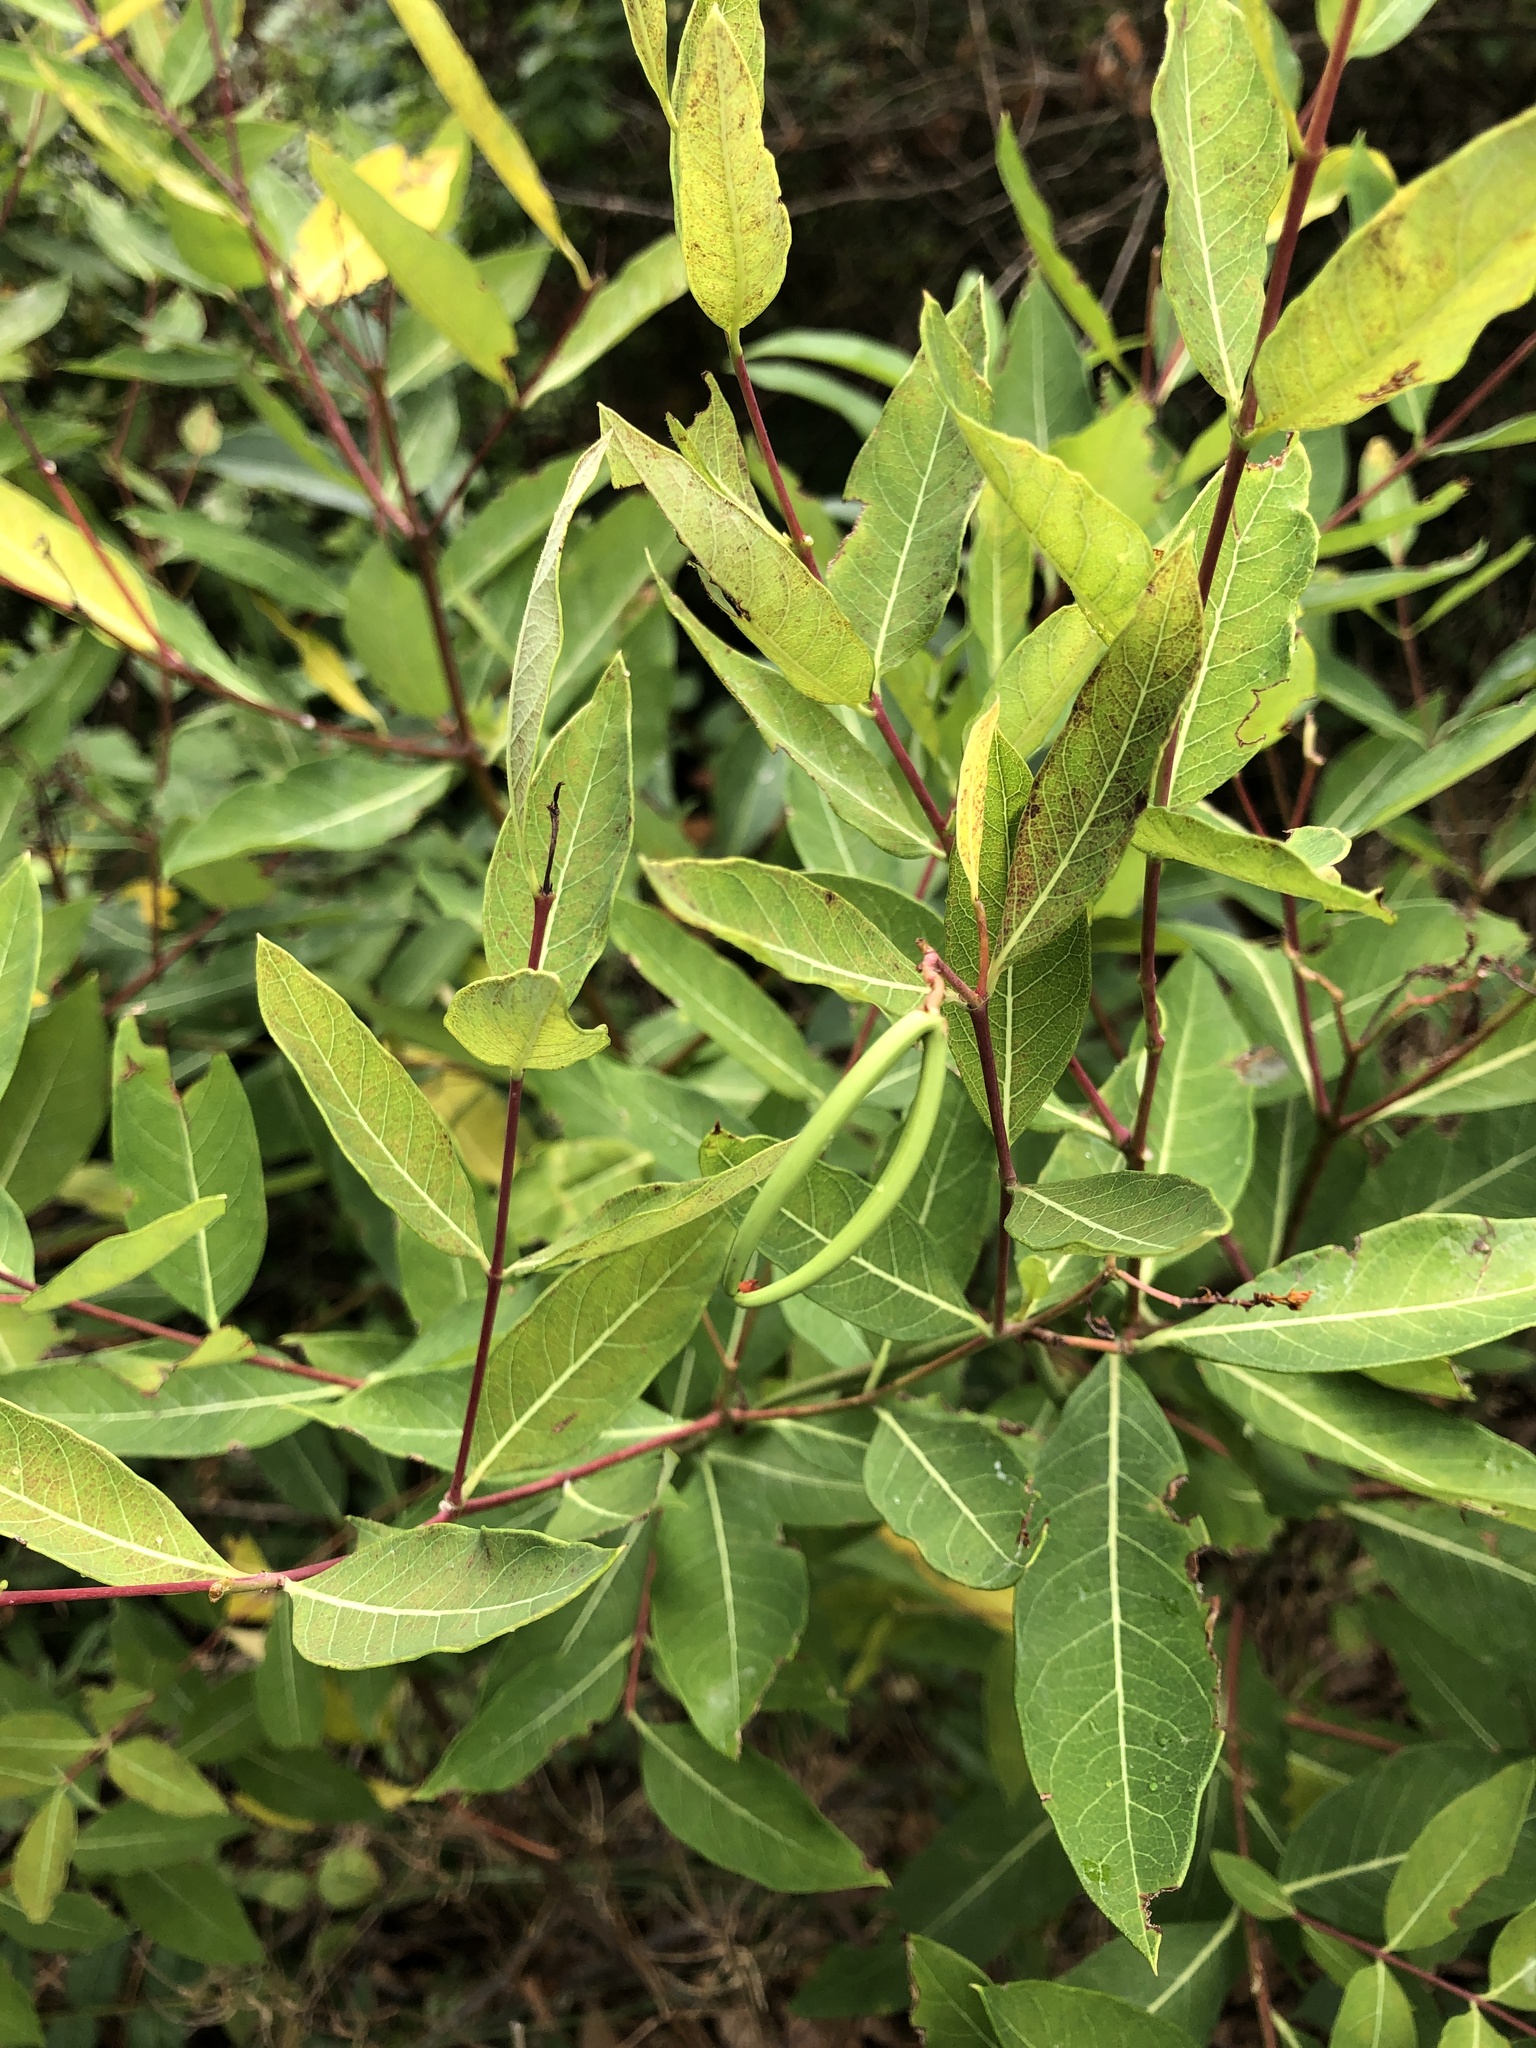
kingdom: Plantae
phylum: Tracheophyta
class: Magnoliopsida
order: Gentianales
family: Apocynaceae
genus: Apocynum
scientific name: Apocynum cannabinum
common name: Hemp dogbane
